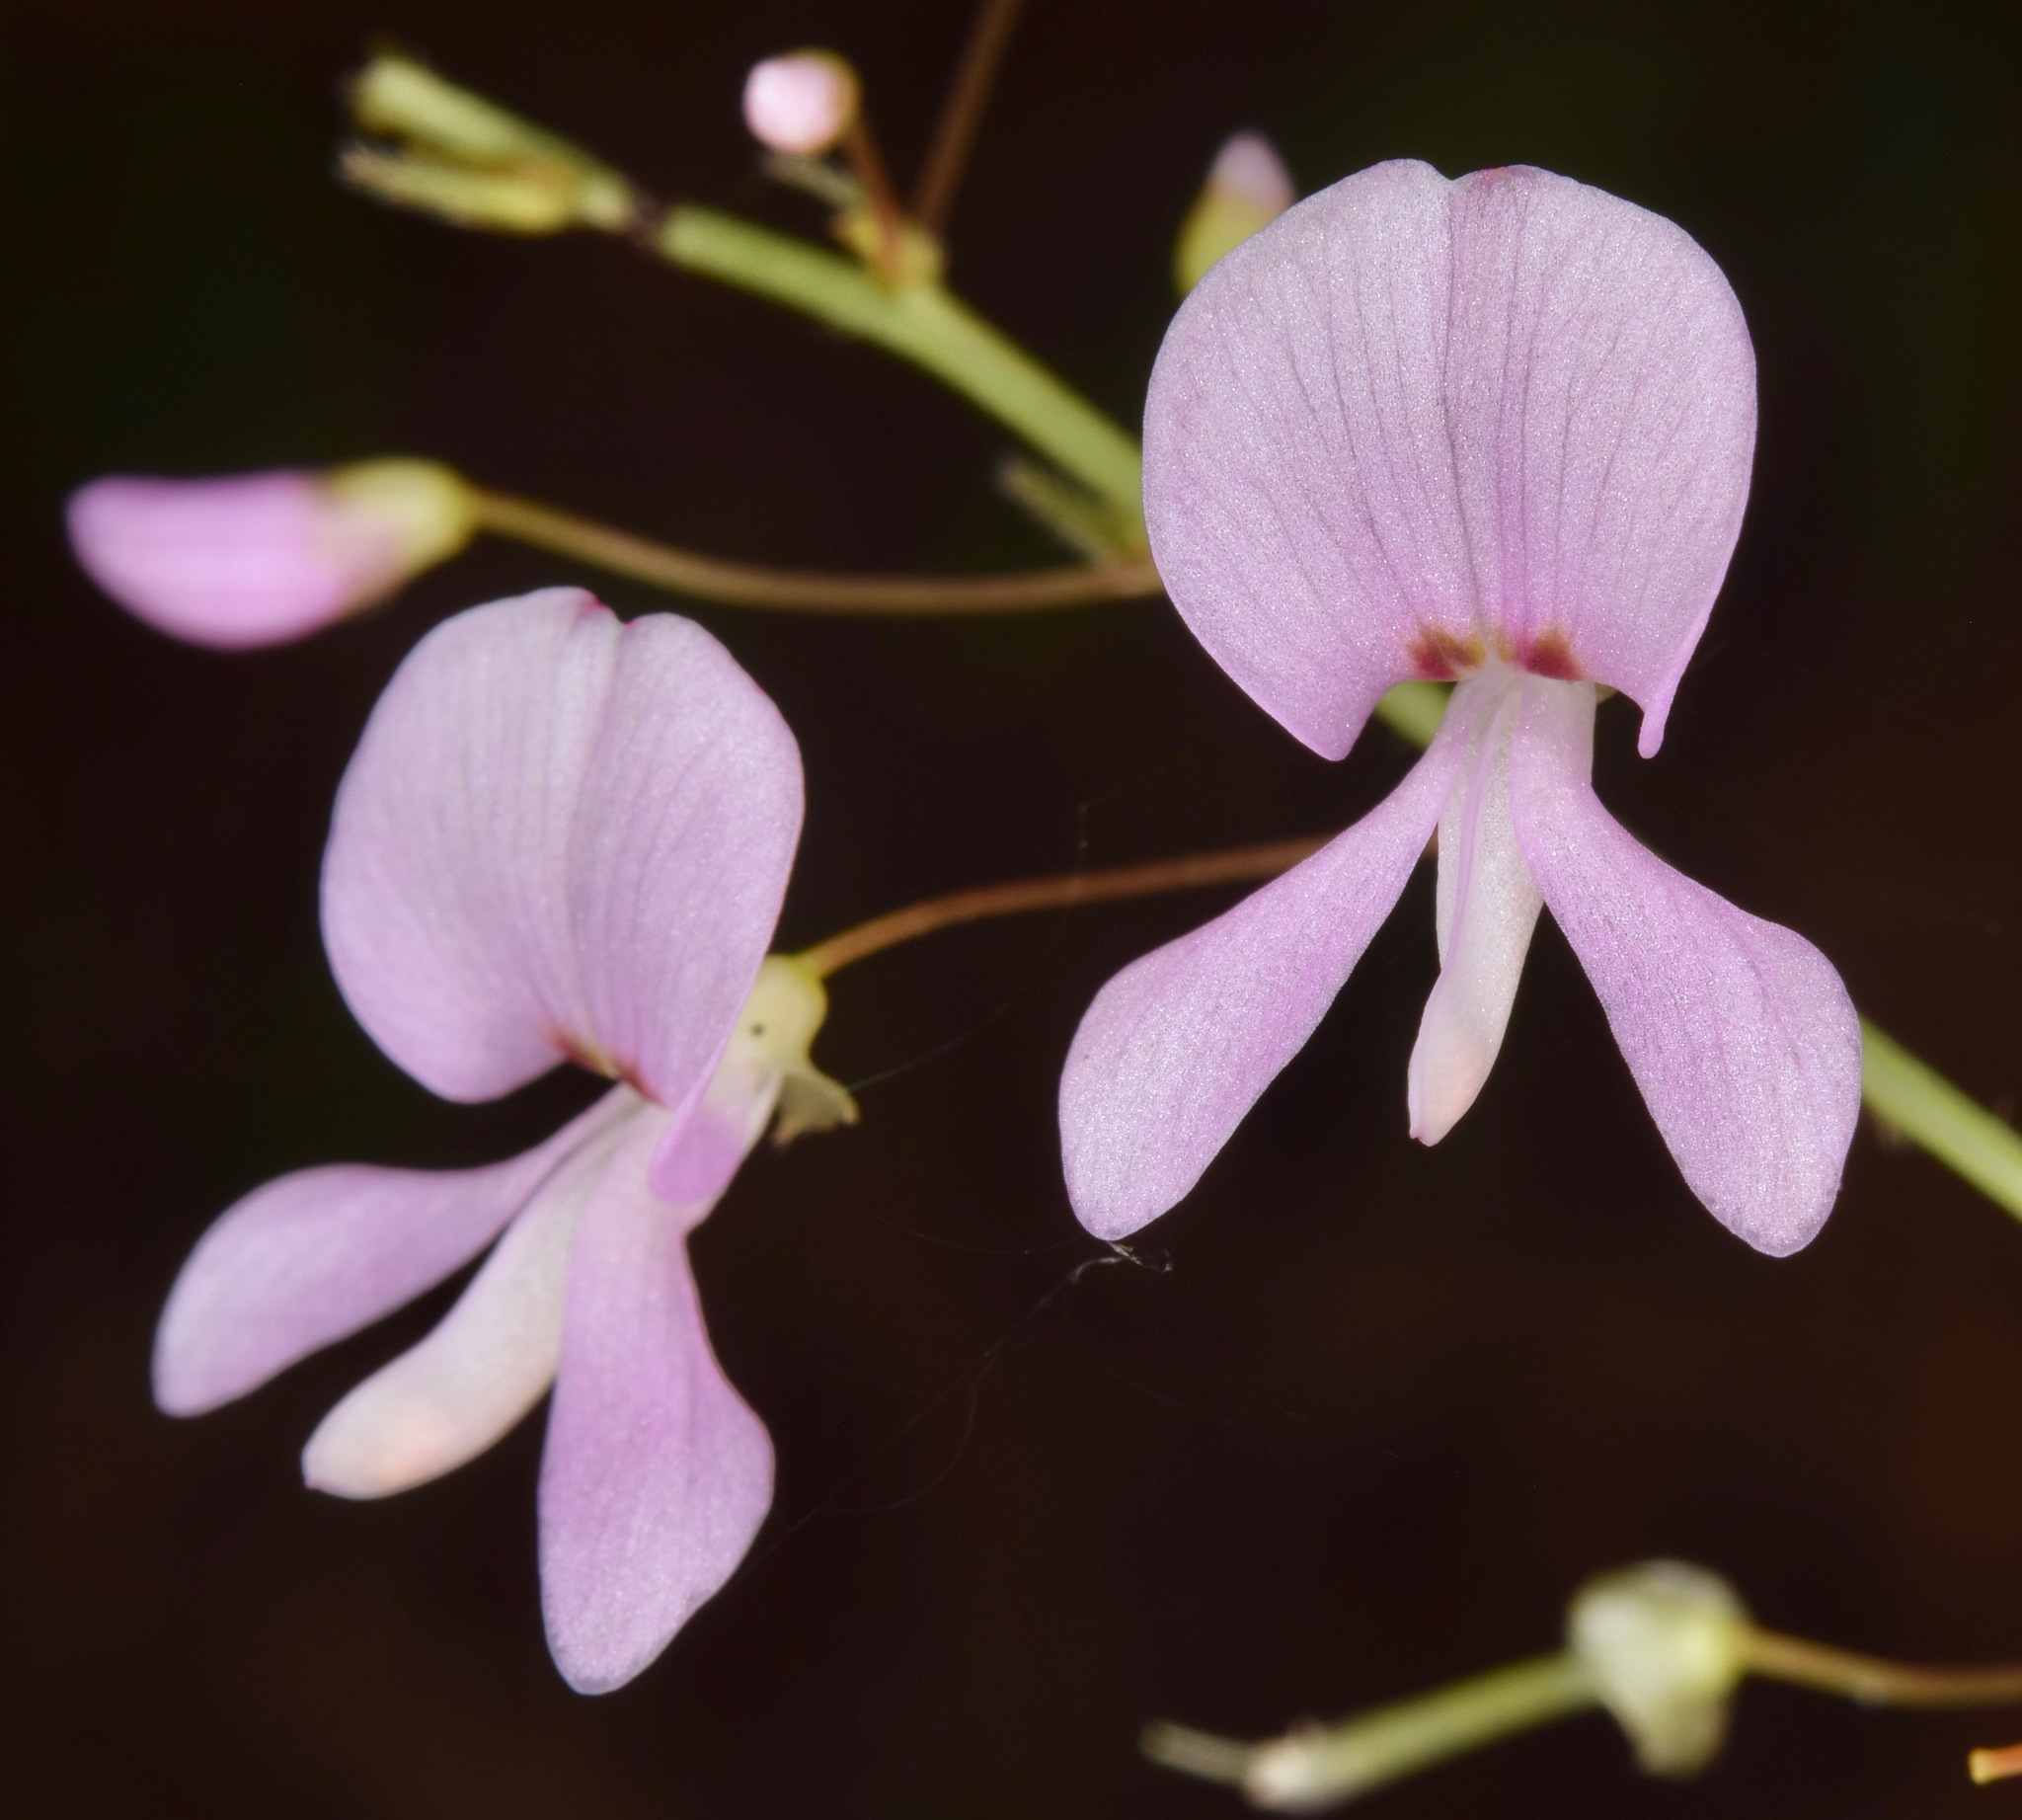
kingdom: Plantae
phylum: Tracheophyta
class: Magnoliopsida
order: Fabales
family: Fabaceae
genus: Hylodesmum
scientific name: Hylodesmum nudiflorum
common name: Bare-stemmed tick-trefoil
